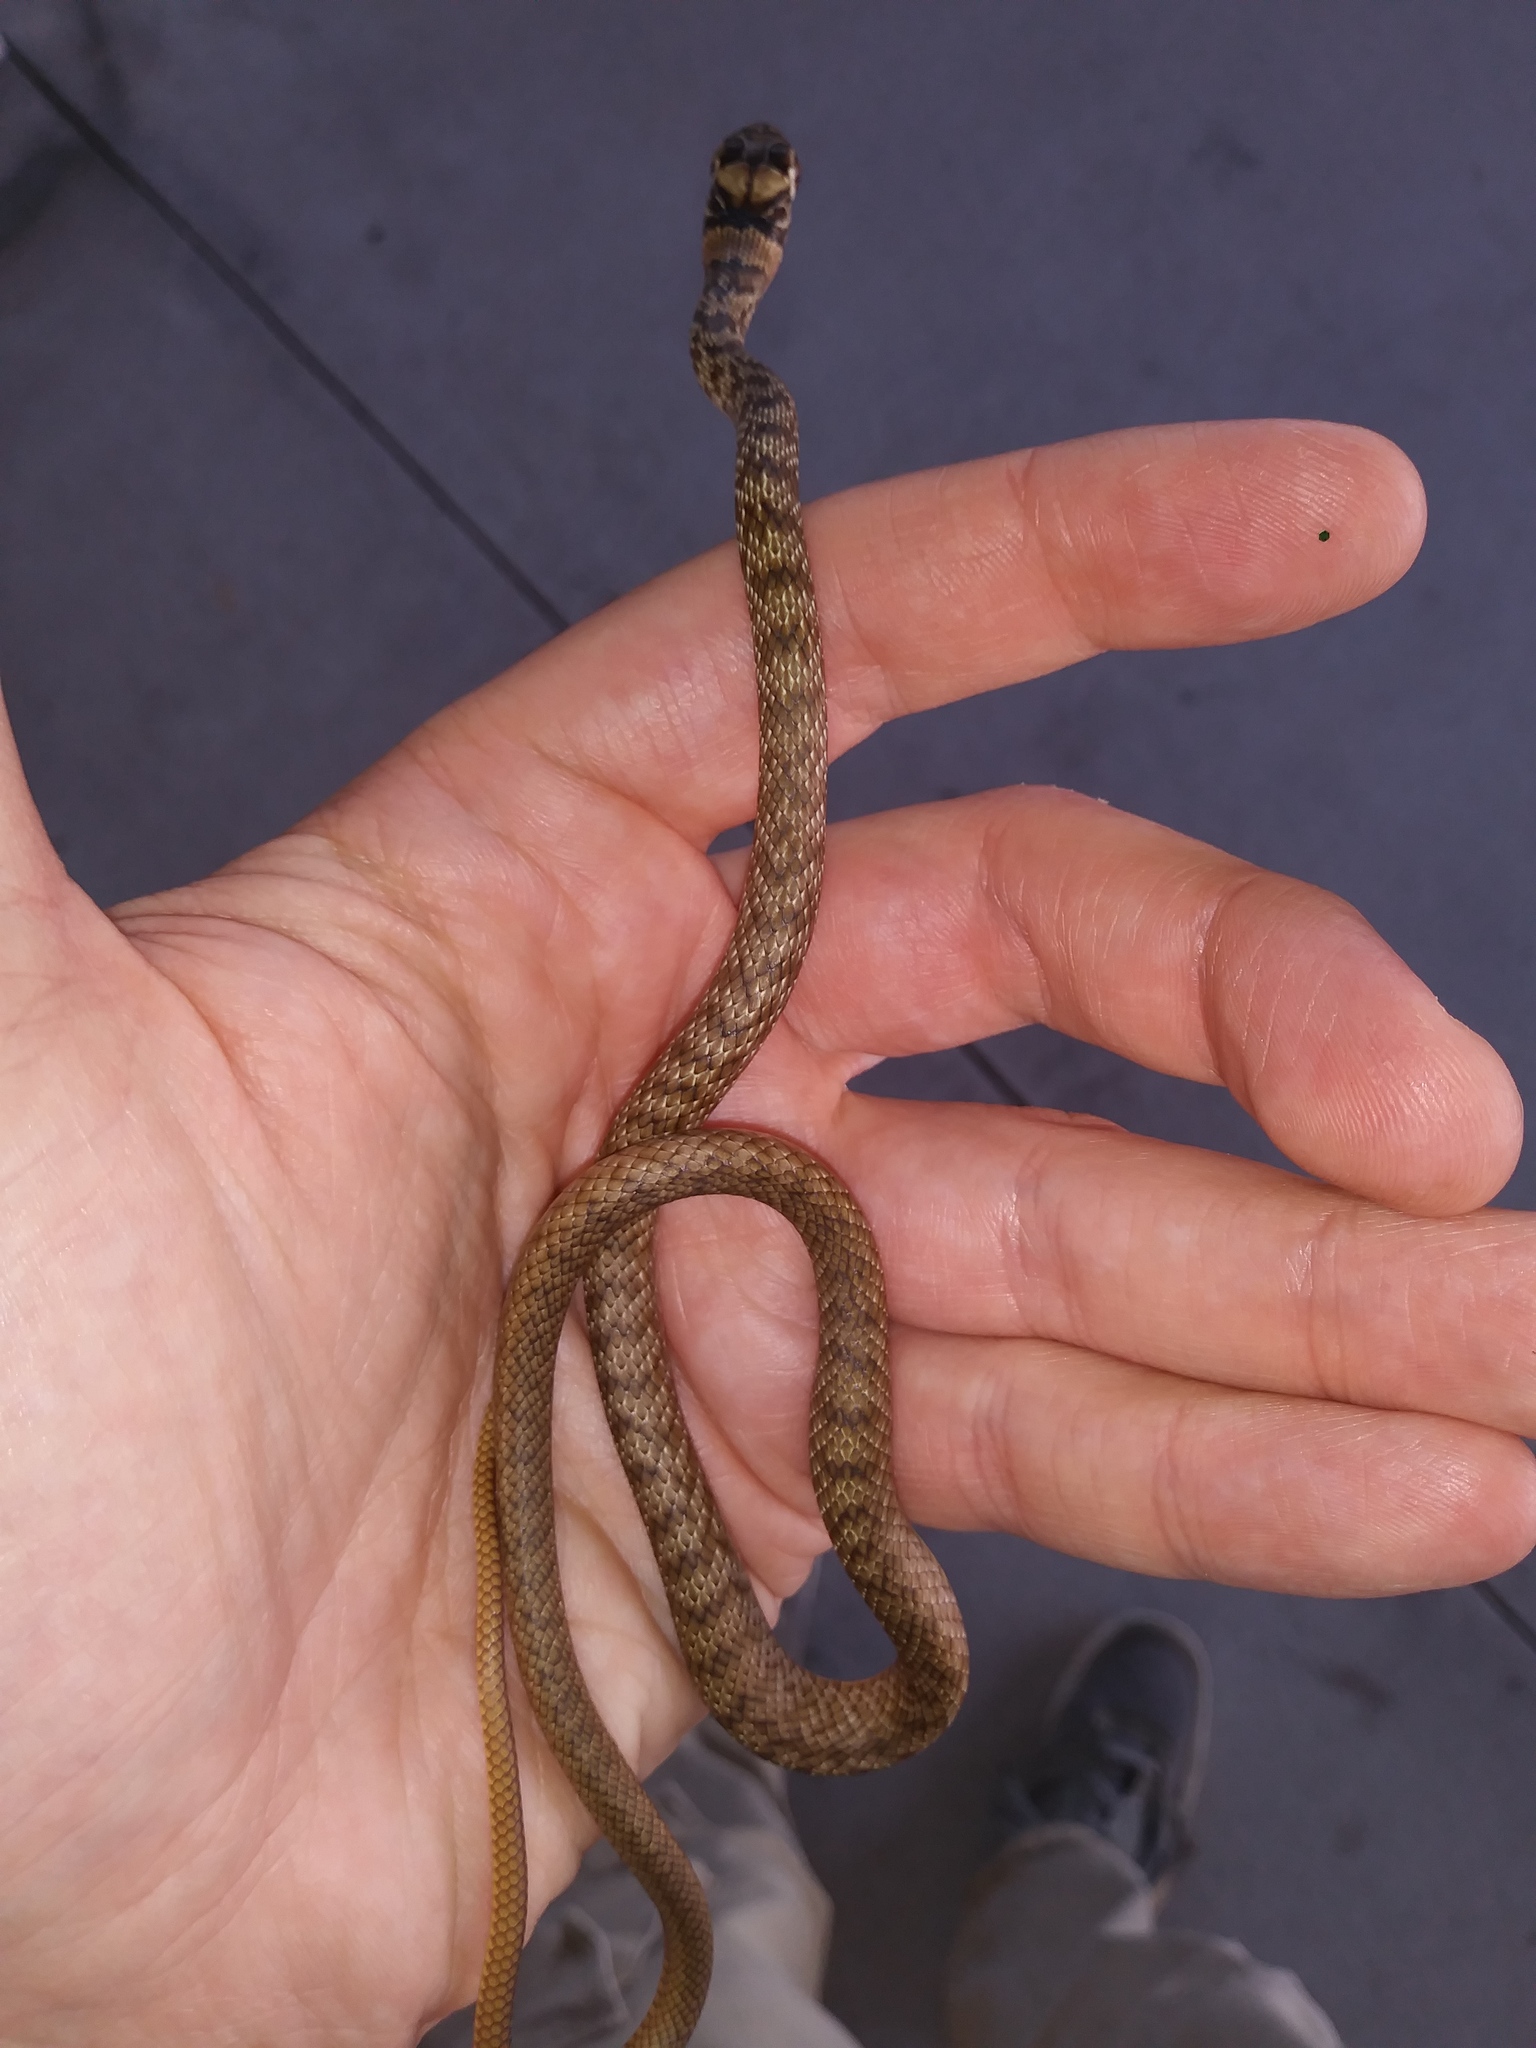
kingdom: Animalia
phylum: Chordata
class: Squamata
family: Colubridae
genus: Masticophis
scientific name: Masticophis flagellum
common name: Coachwhip
